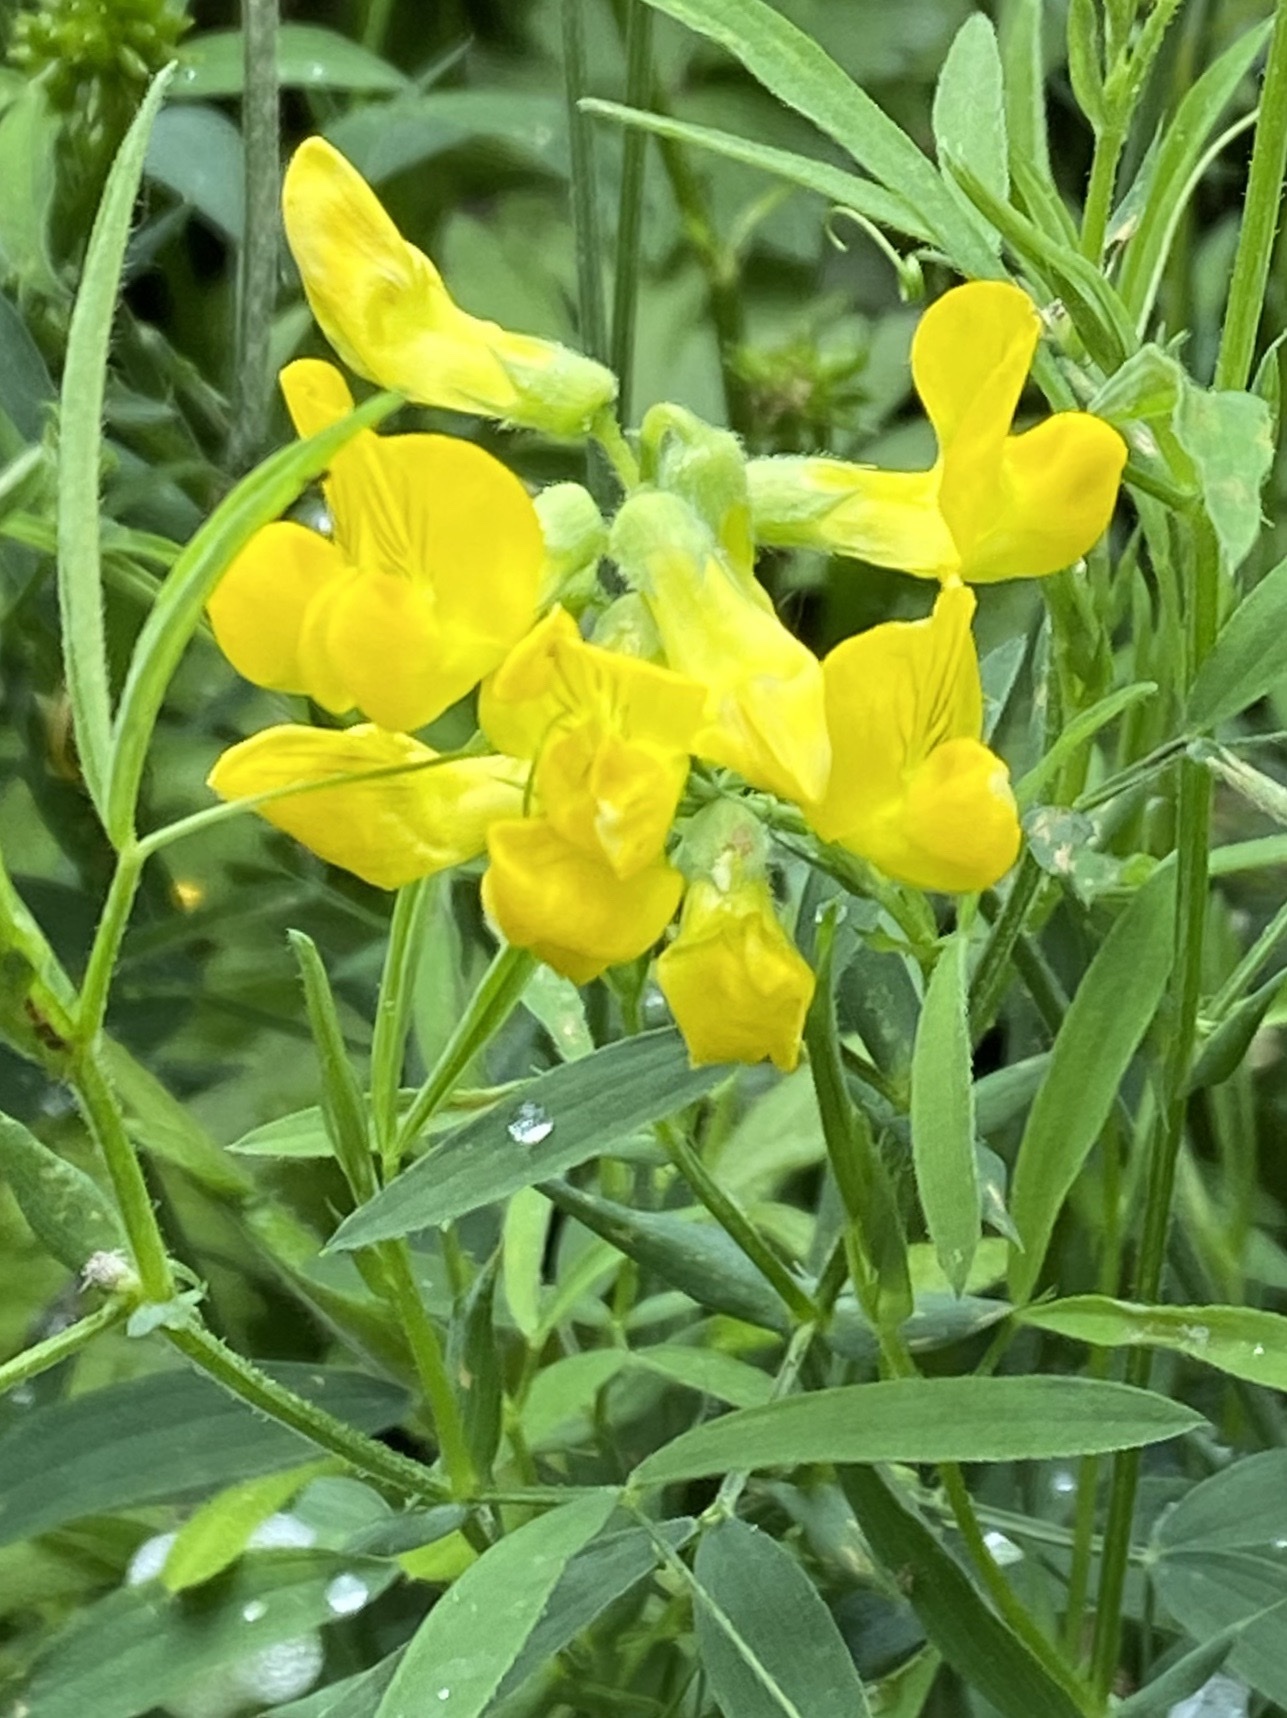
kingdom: Plantae
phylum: Tracheophyta
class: Magnoliopsida
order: Fabales
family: Fabaceae
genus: Lathyrus
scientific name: Lathyrus pratensis
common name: Meadow vetchling
